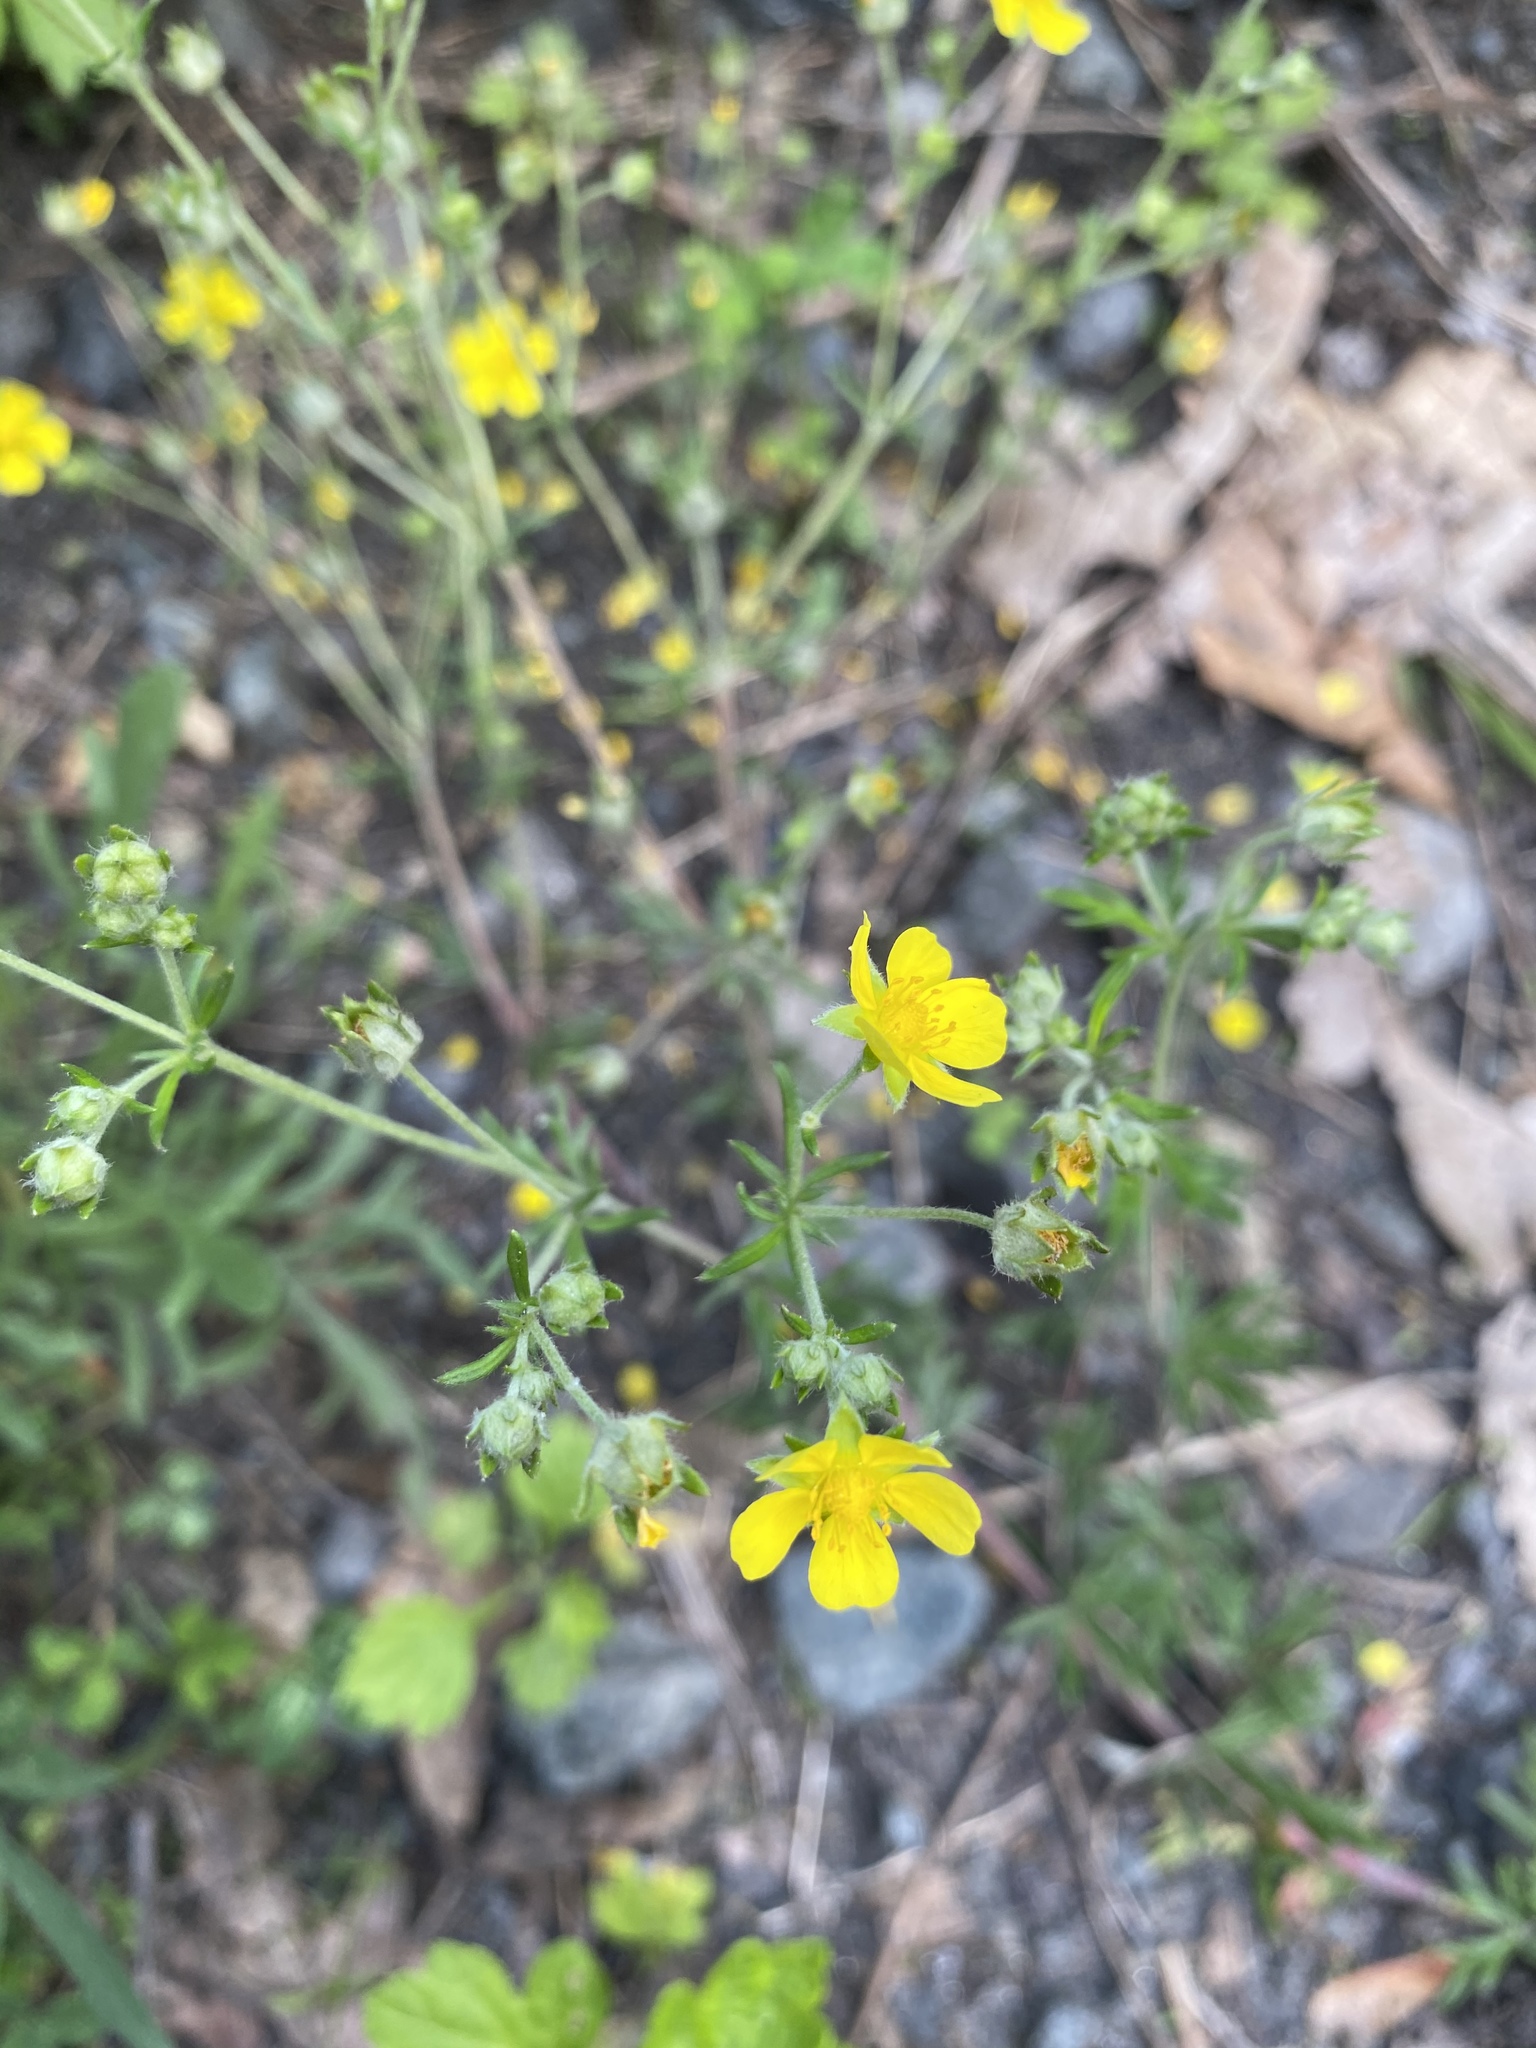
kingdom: Plantae
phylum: Tracheophyta
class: Magnoliopsida
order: Rosales
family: Rosaceae
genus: Potentilla
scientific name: Potentilla argentea
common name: Hoary cinquefoil
